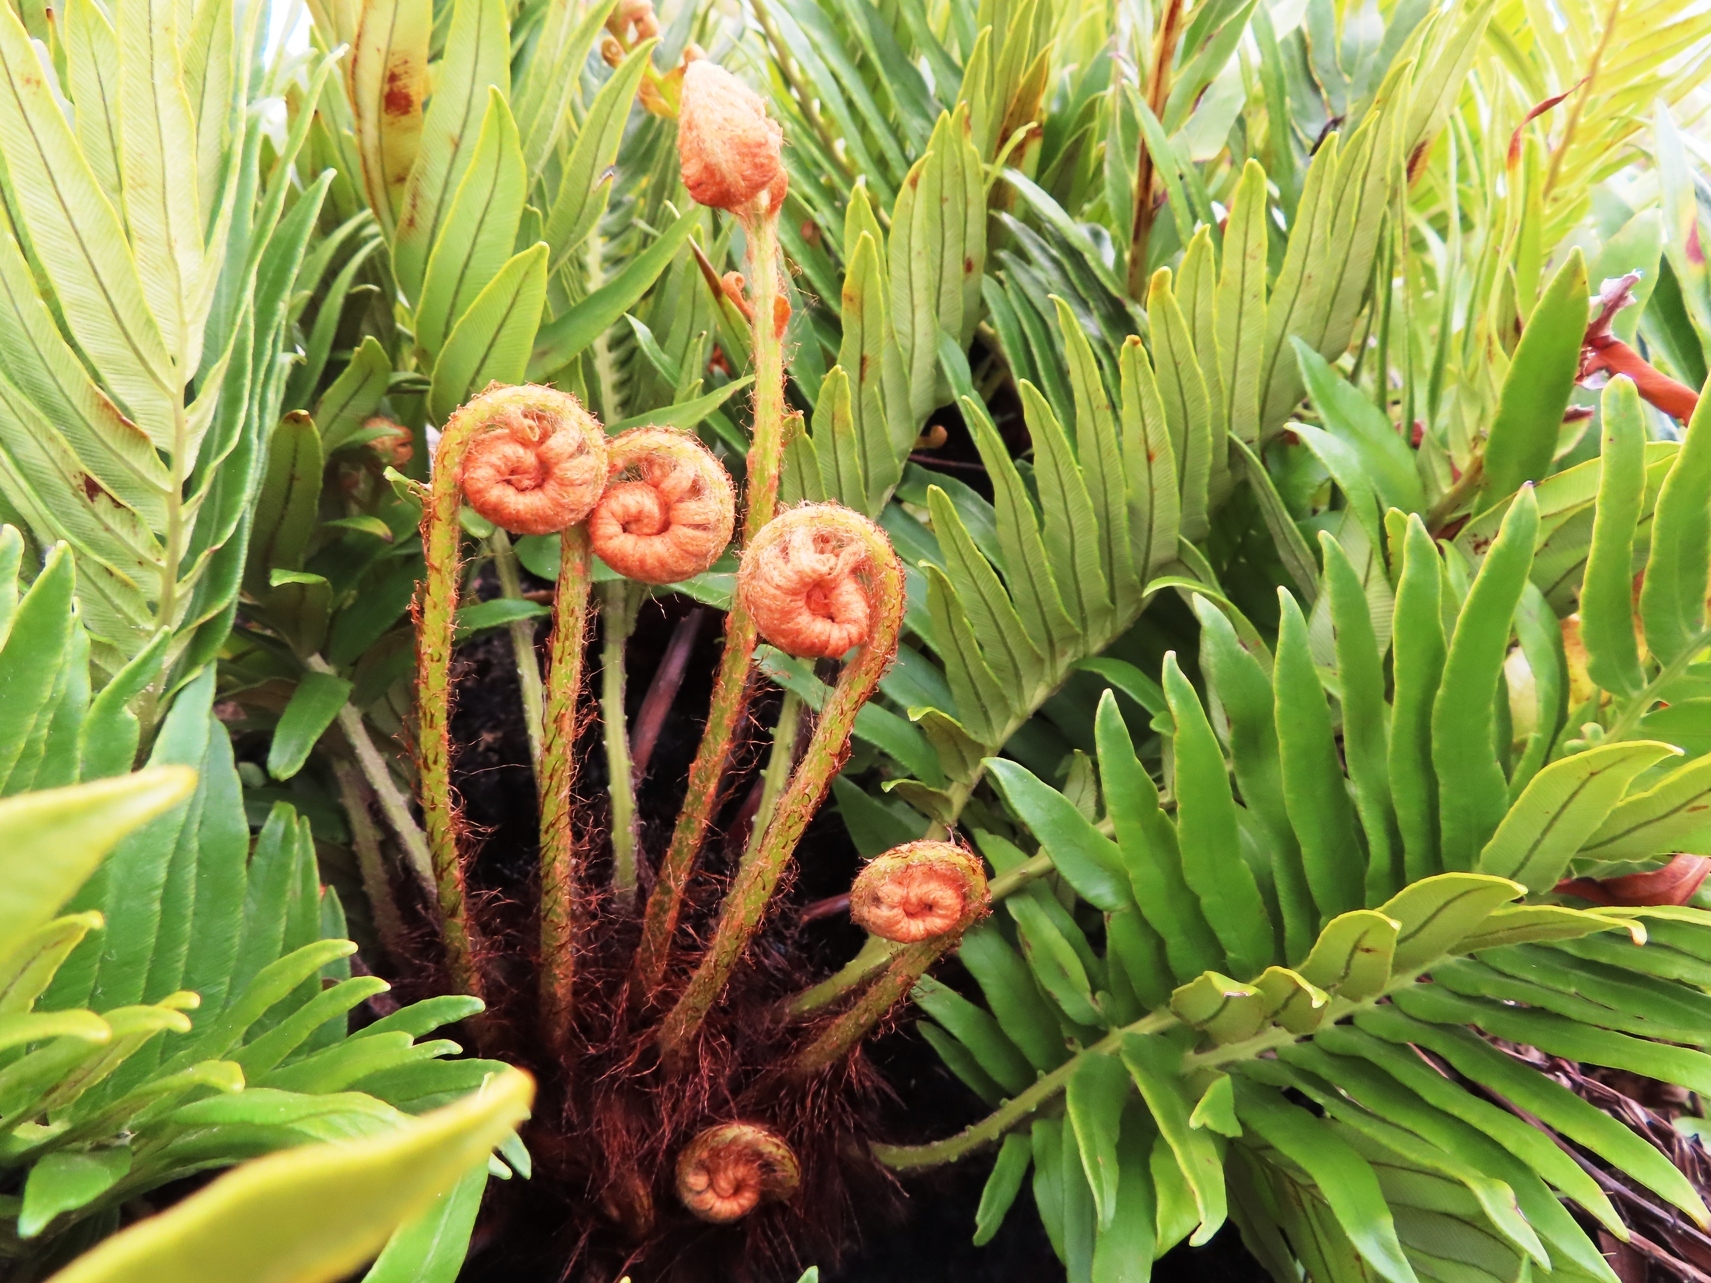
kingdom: Plantae
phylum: Tracheophyta
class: Polypodiopsida
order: Polypodiales
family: Blechnaceae
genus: Lomariocycas
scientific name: Lomariocycas tabularis
